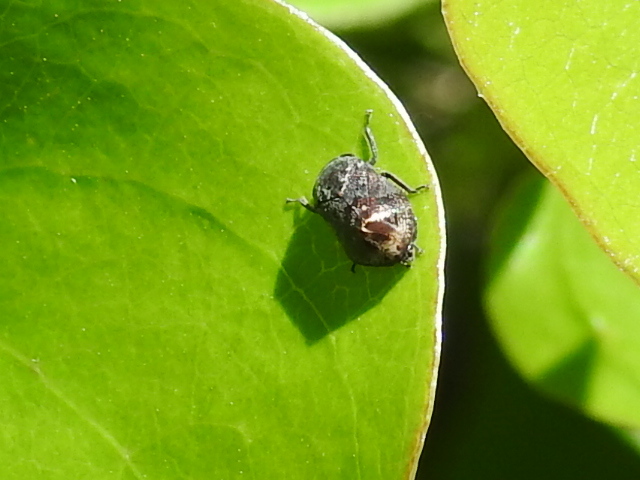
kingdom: Animalia
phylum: Arthropoda
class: Insecta
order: Hemiptera
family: Cicadellidae
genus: Penthimia
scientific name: Penthimia americana
